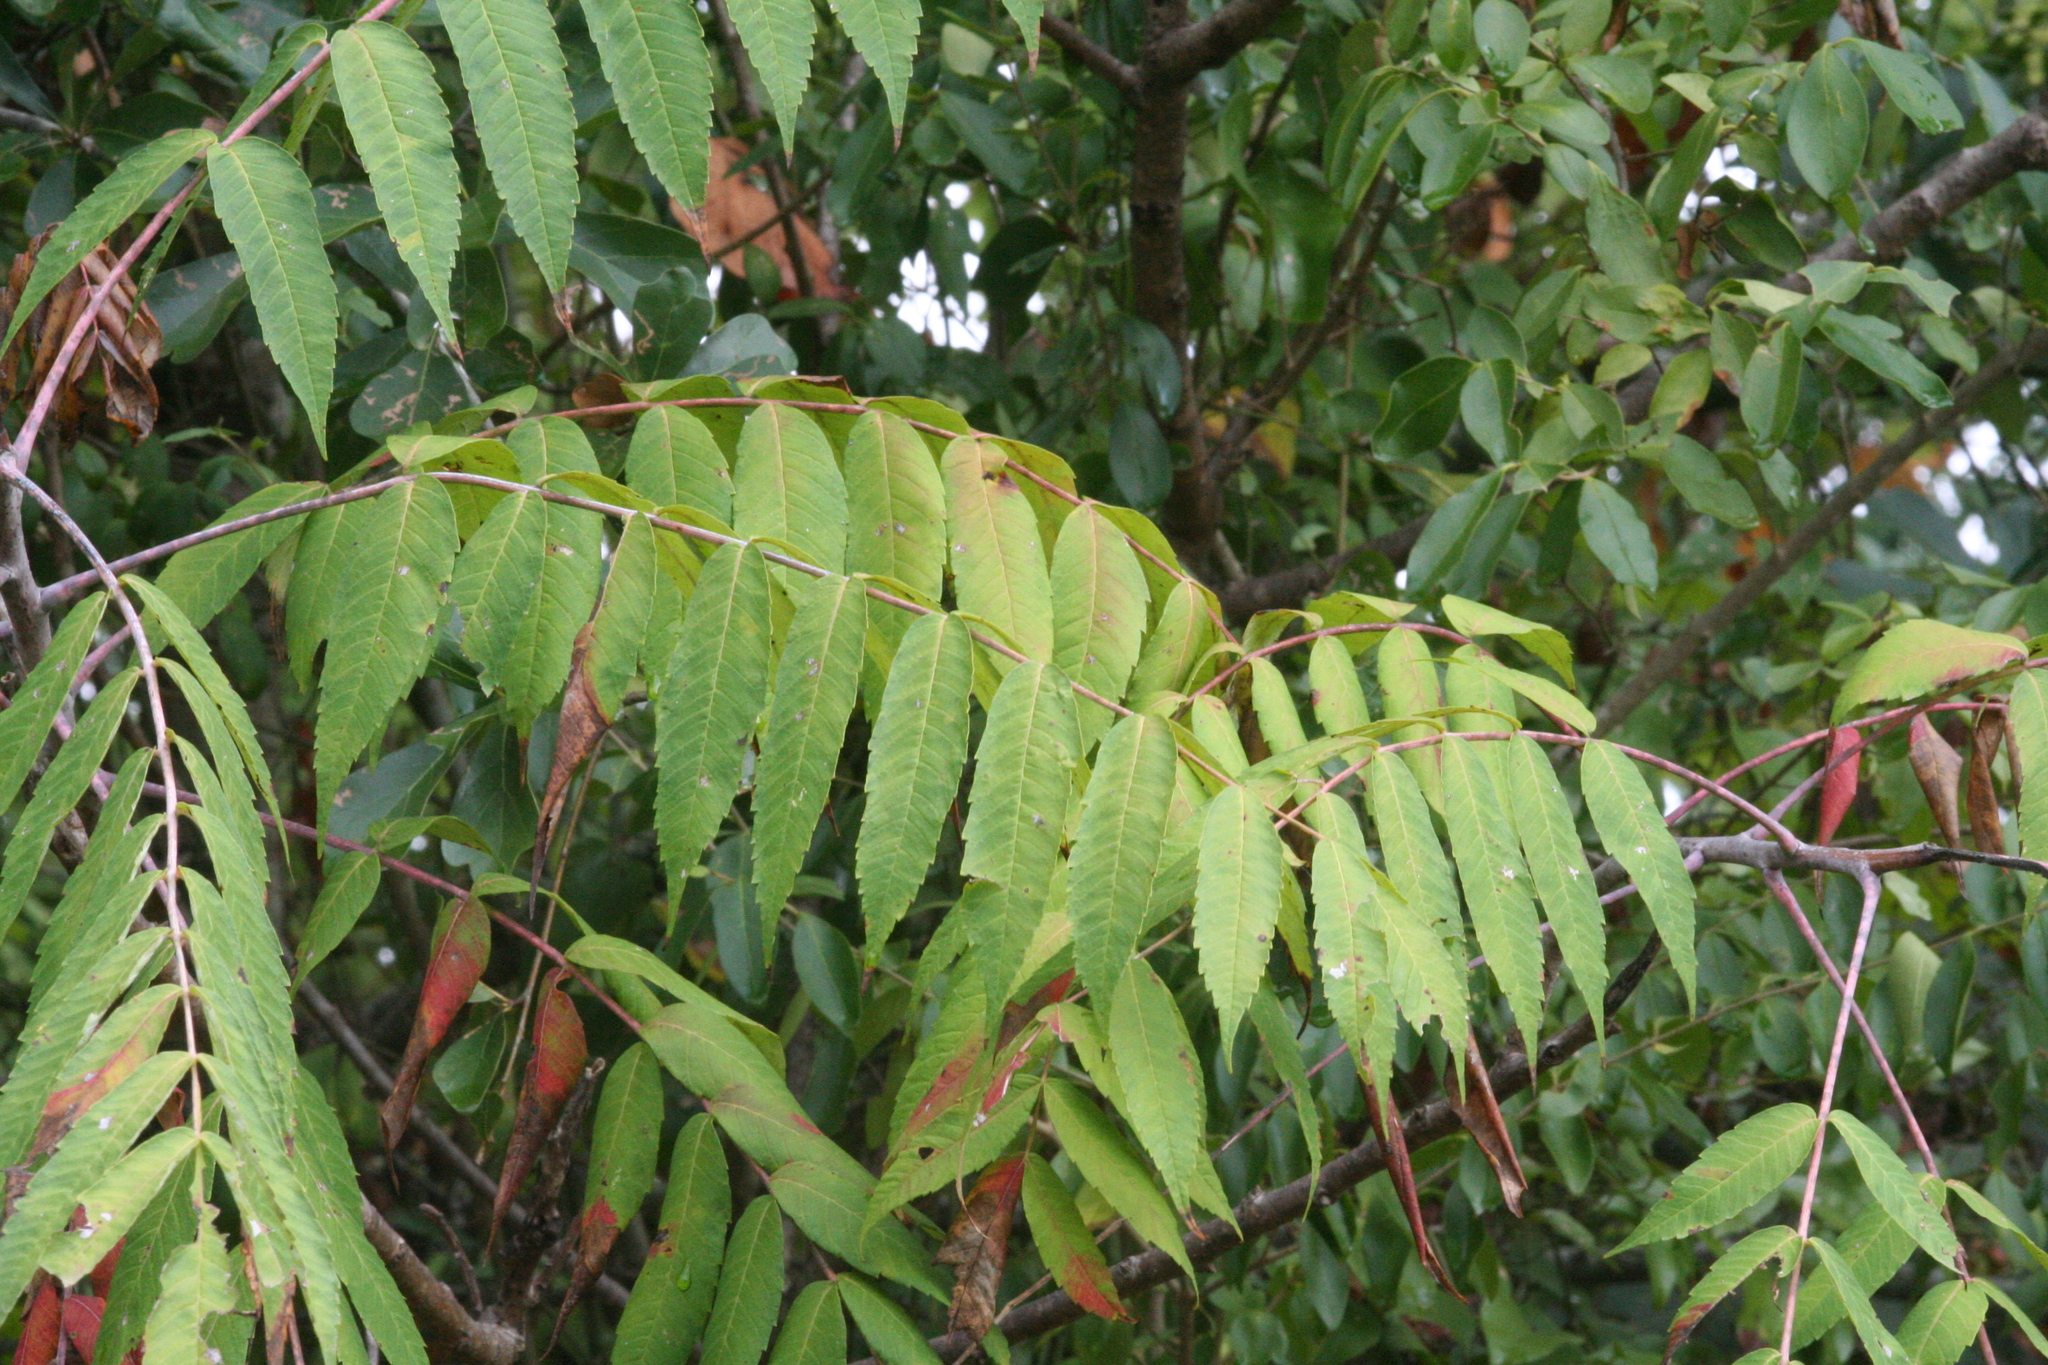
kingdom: Plantae
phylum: Tracheophyta
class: Magnoliopsida
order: Sapindales
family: Anacardiaceae
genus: Rhus
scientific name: Rhus glabra
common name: Scarlet sumac
